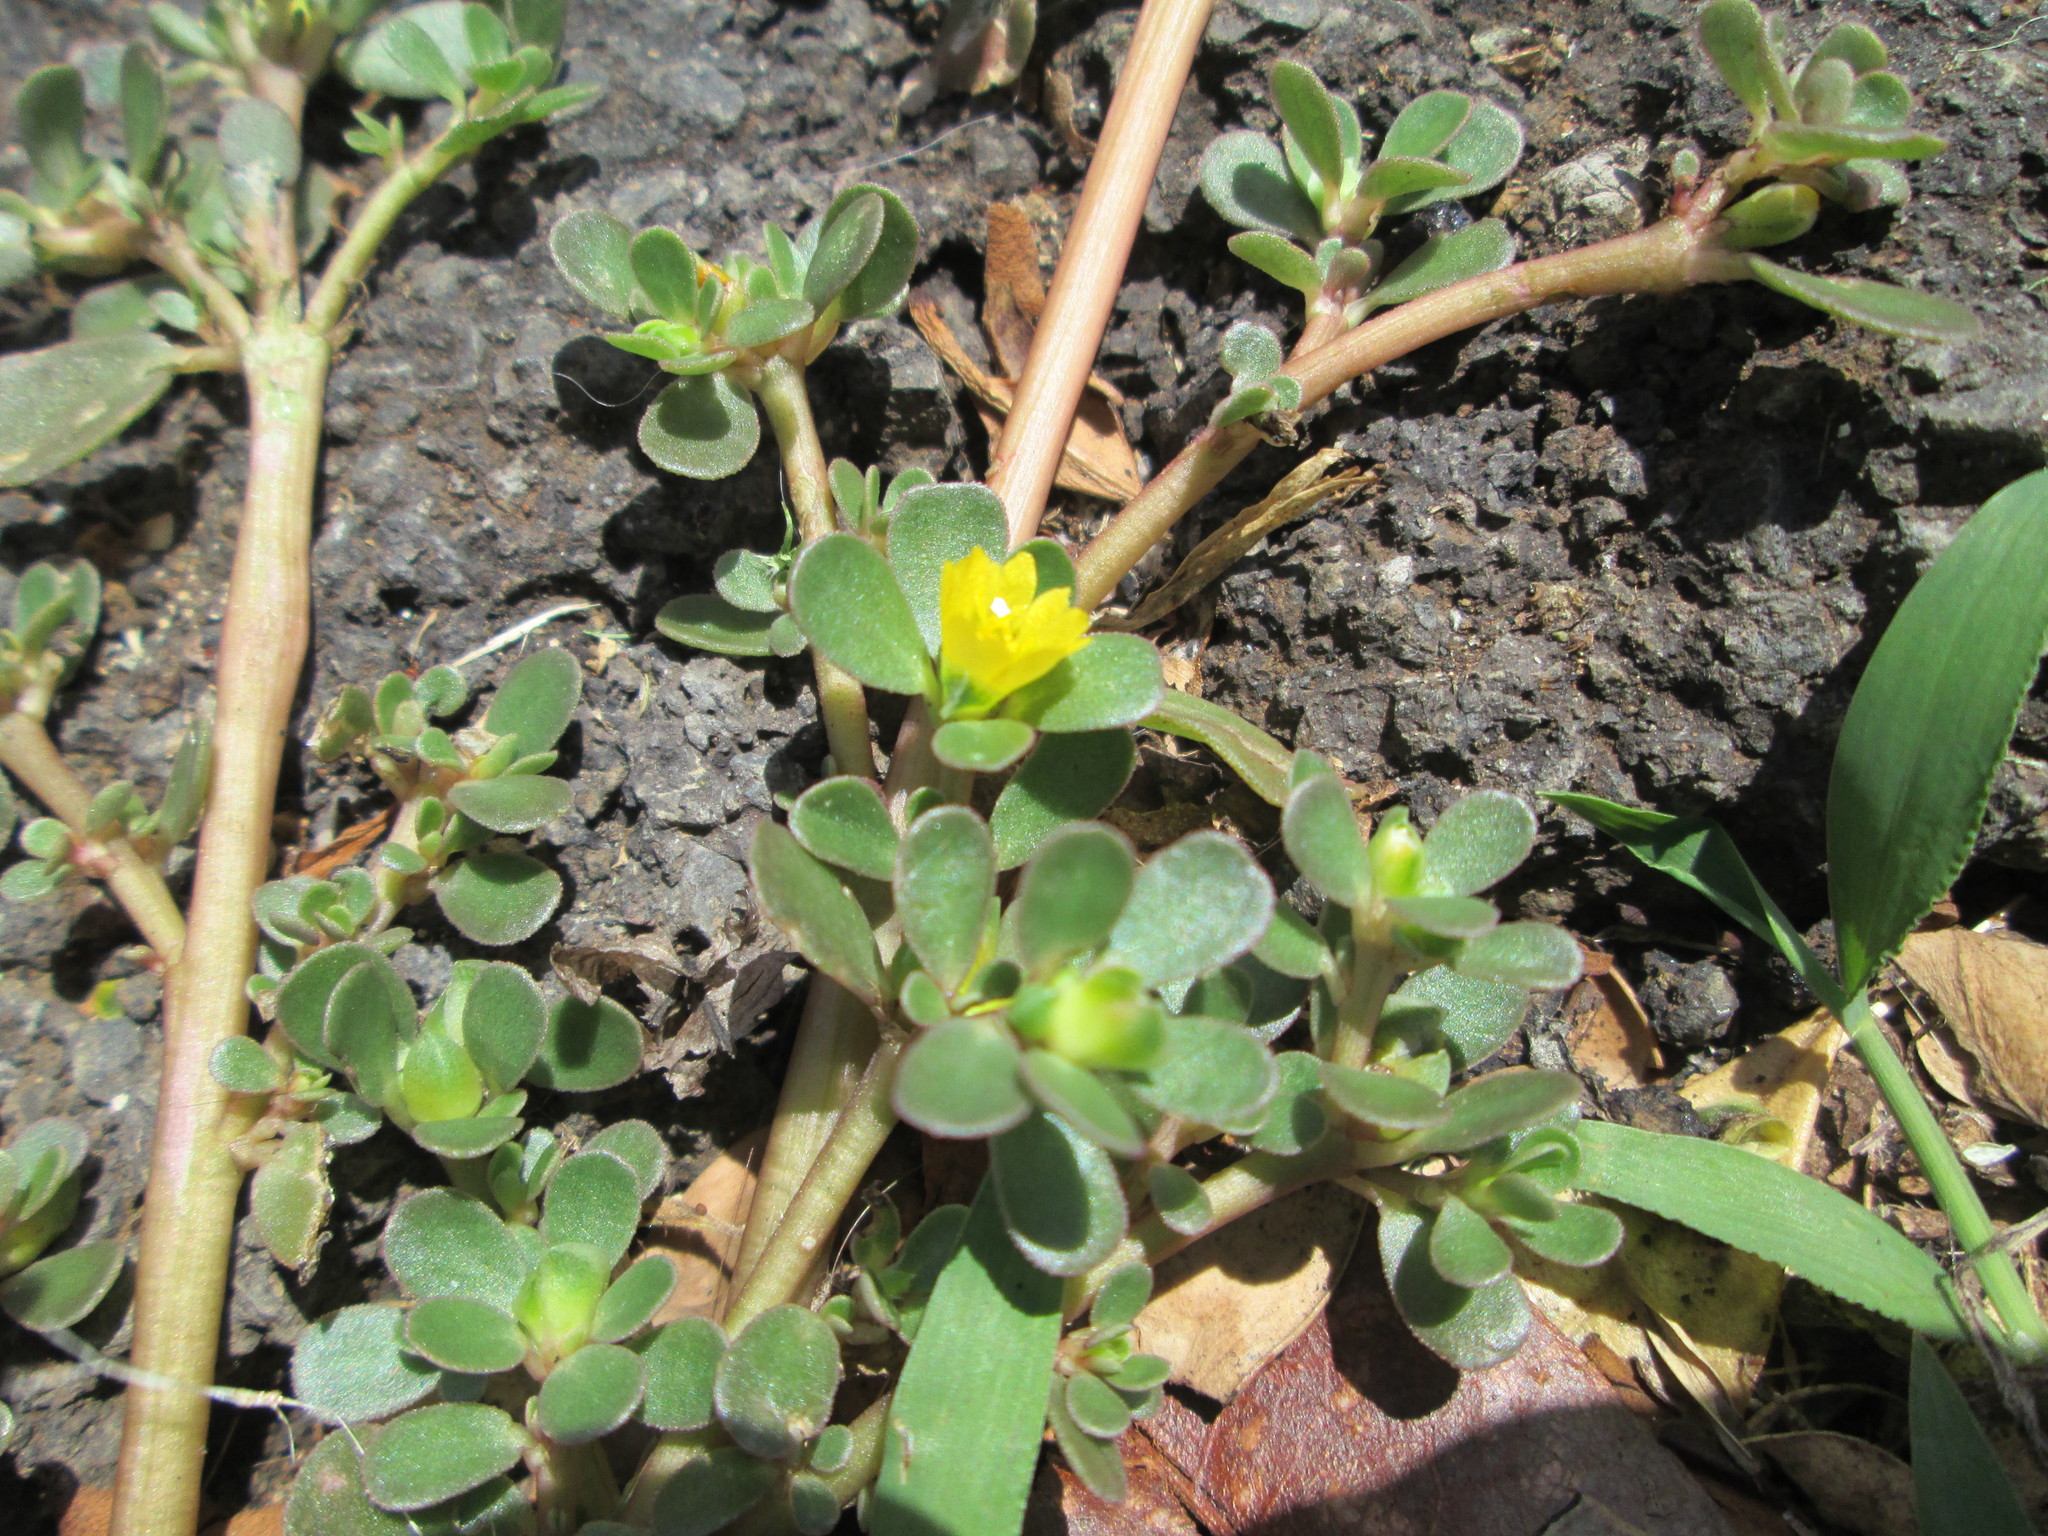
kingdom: Plantae
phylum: Tracheophyta
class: Magnoliopsida
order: Caryophyllales
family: Portulacaceae
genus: Portulaca
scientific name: Portulaca oleracea
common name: Common purslane
